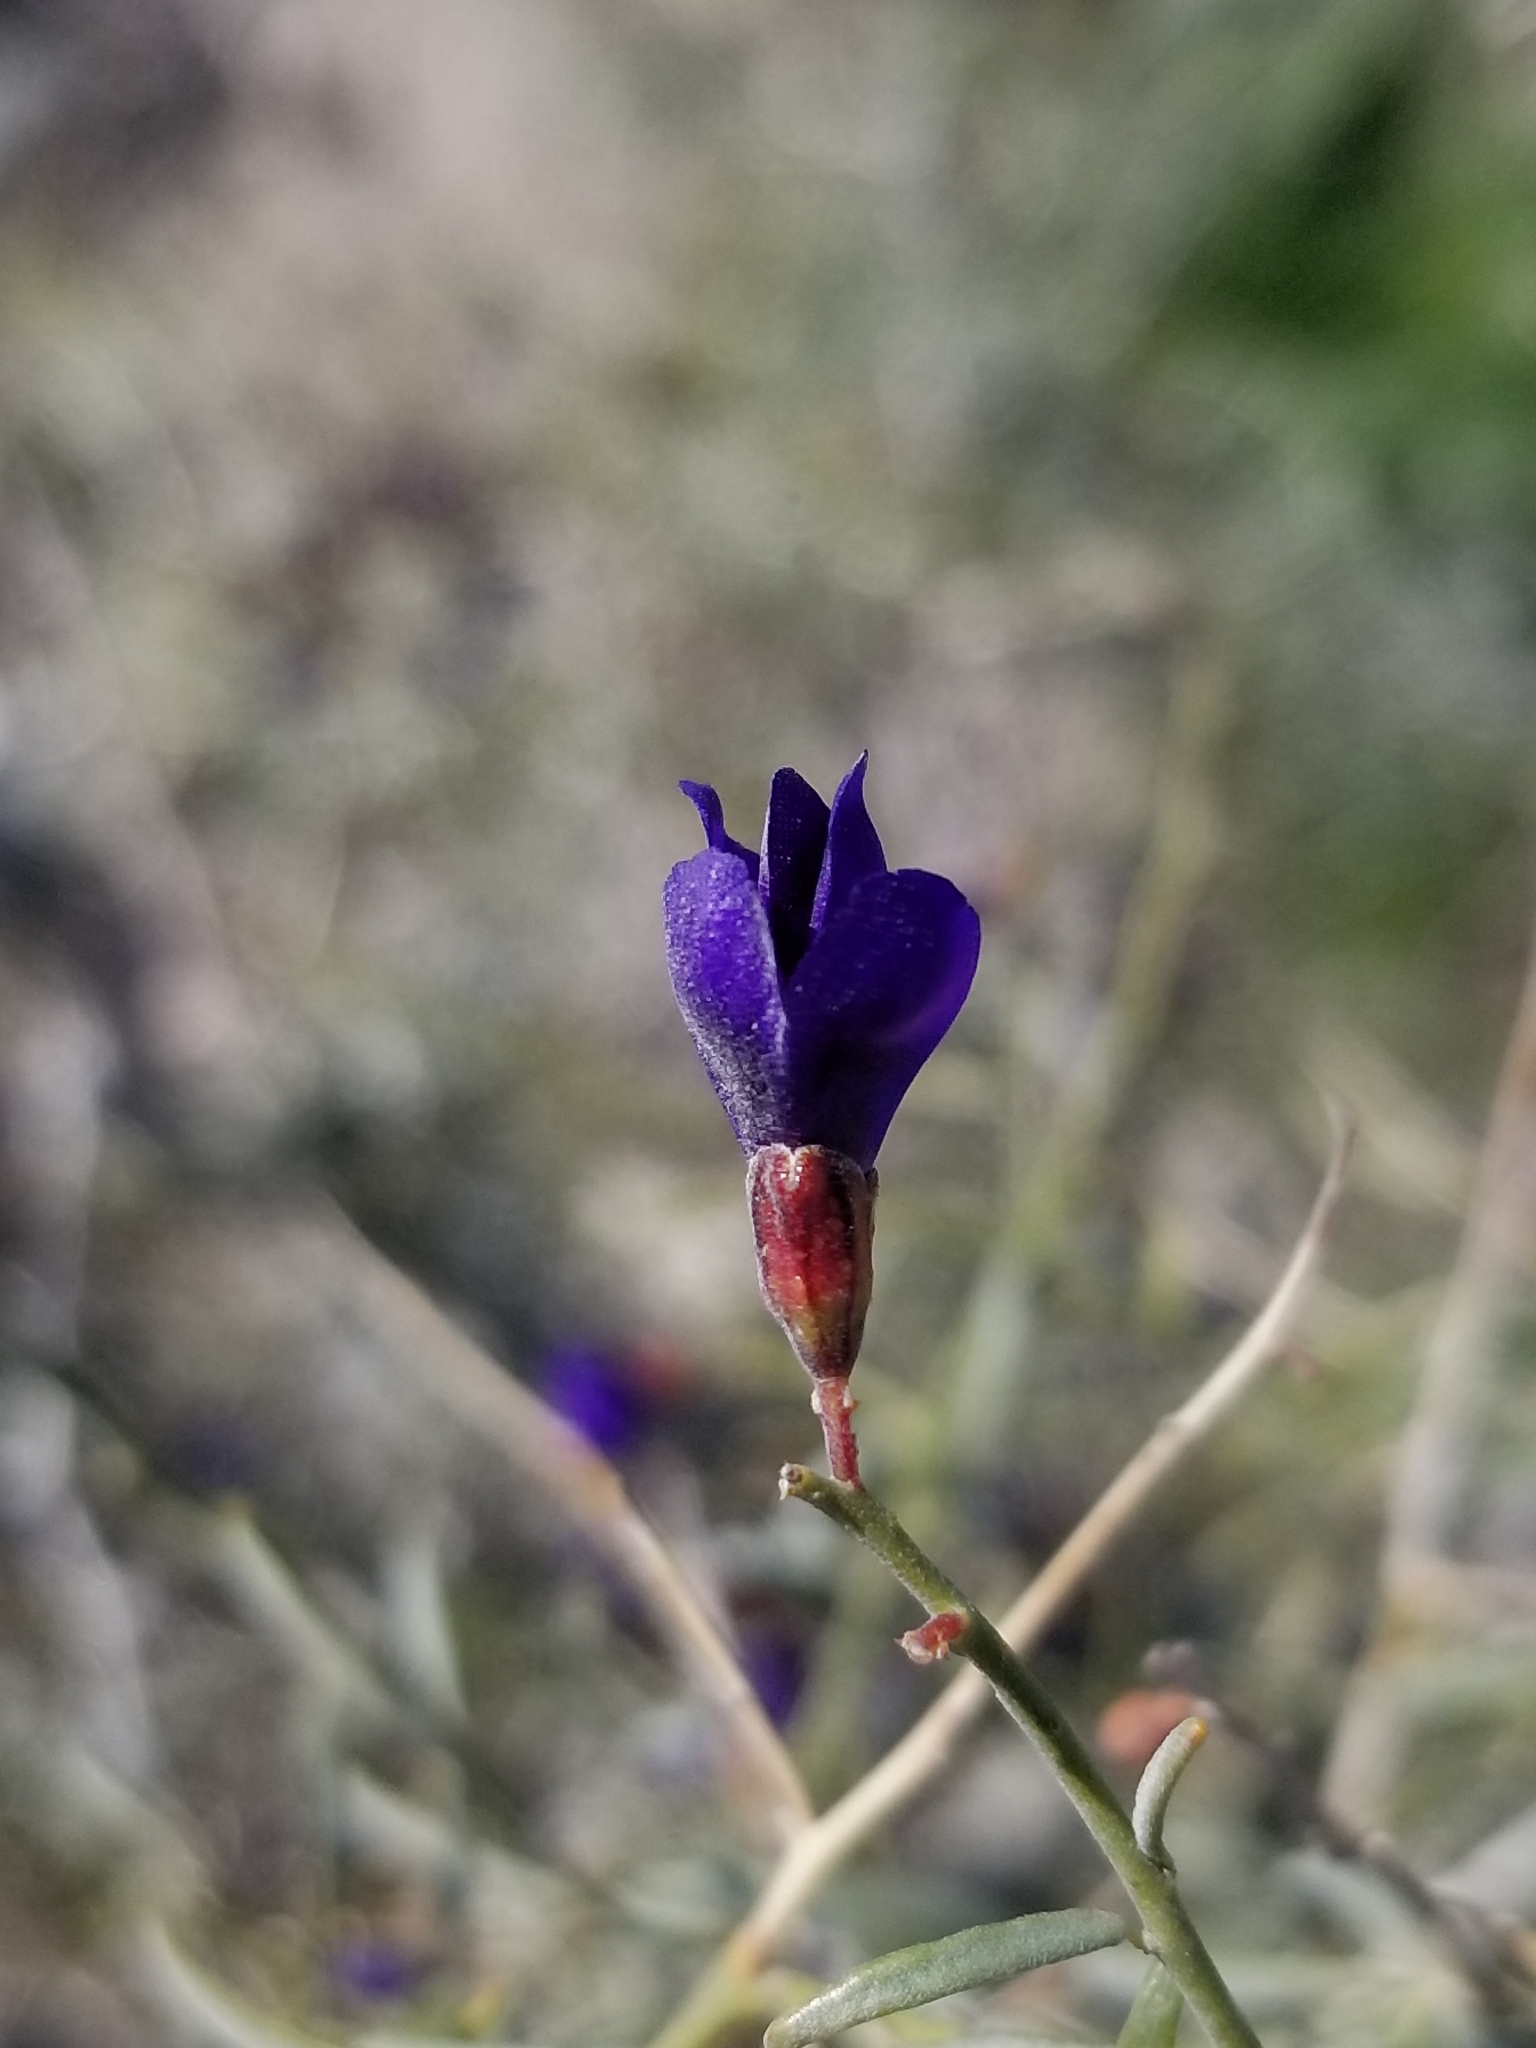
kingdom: Plantae
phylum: Tracheophyta
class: Magnoliopsida
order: Fabales
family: Fabaceae
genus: Psorothamnus
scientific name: Psorothamnus schottii
